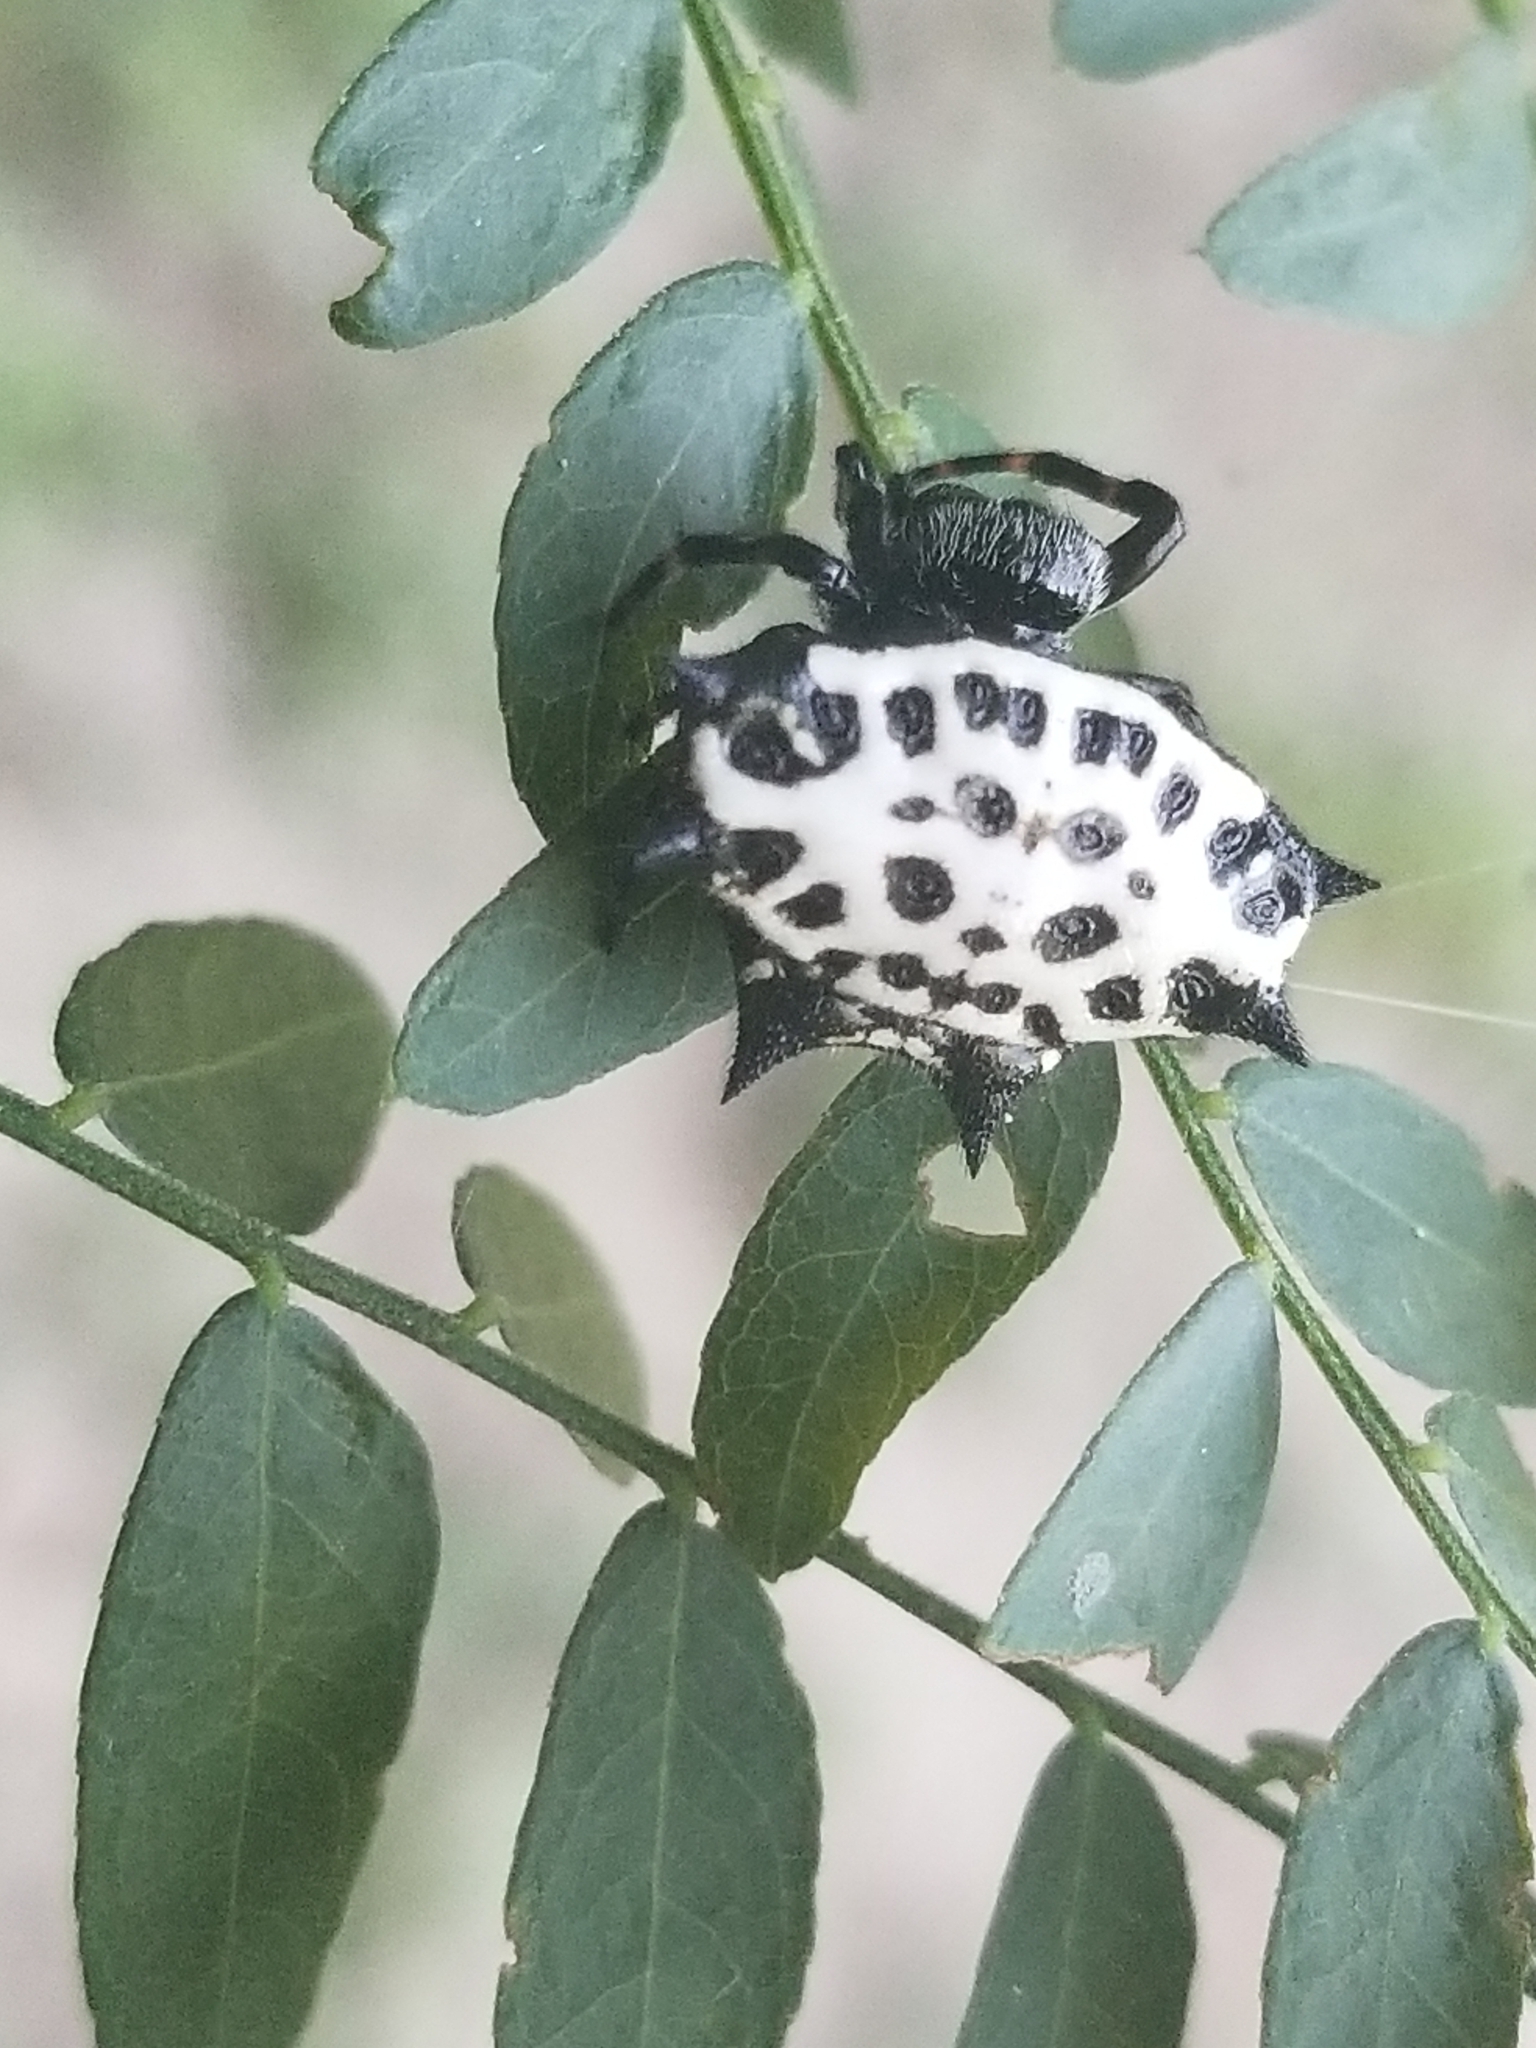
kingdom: Animalia
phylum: Arthropoda
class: Arachnida
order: Araneae
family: Araneidae
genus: Gasteracantha
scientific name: Gasteracantha cancriformis
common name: Orb weavers
